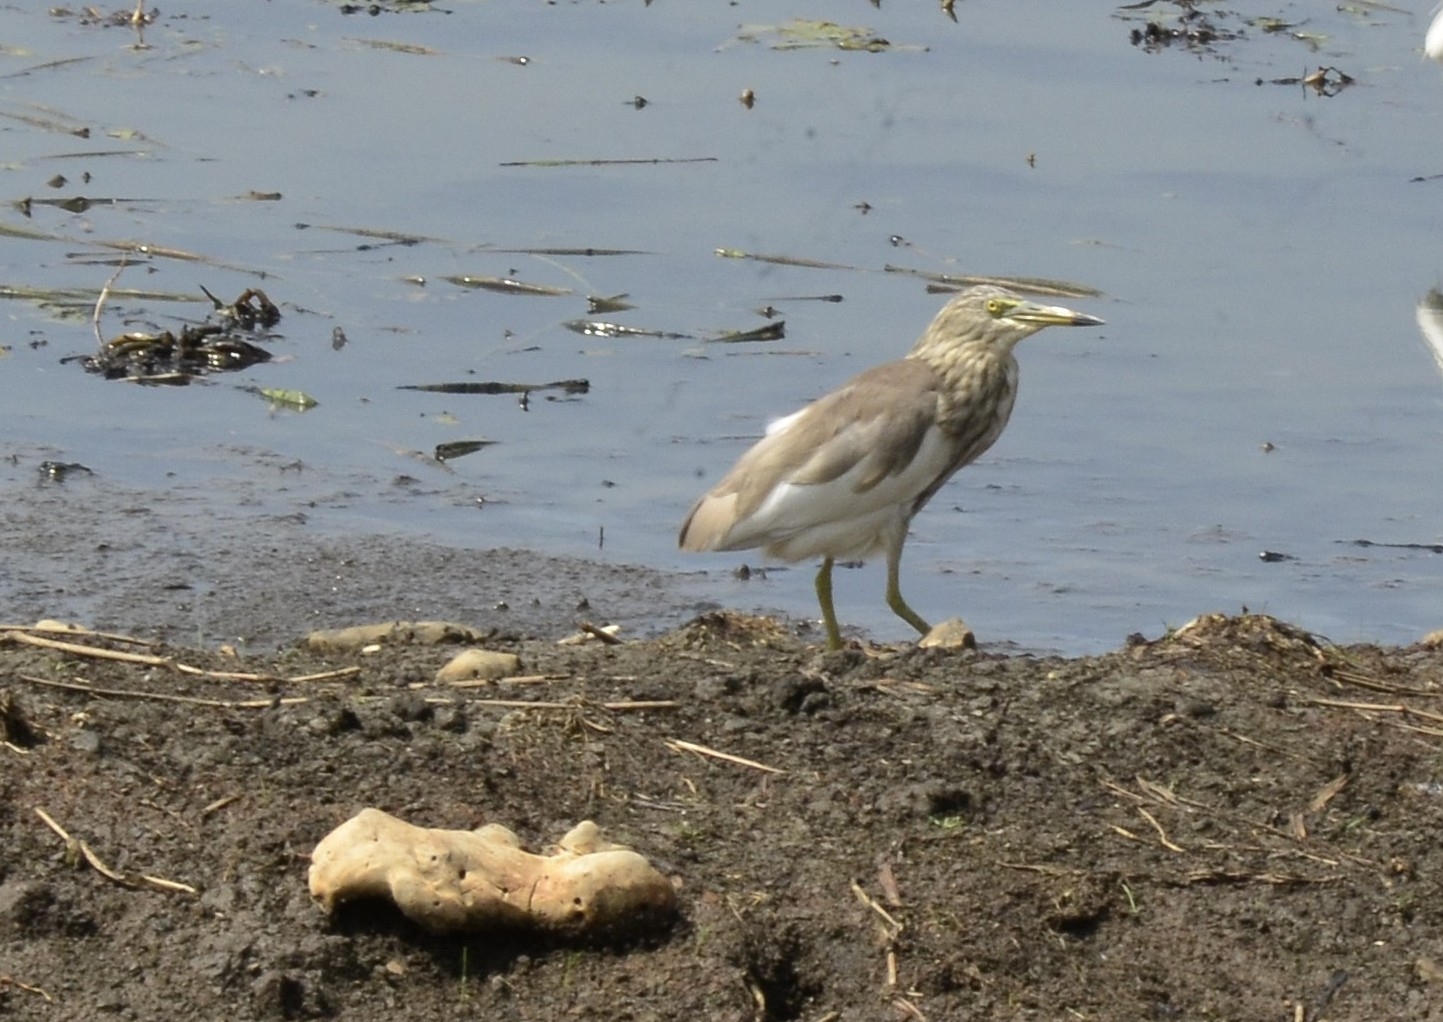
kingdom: Animalia
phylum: Chordata
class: Aves
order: Pelecaniformes
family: Ardeidae
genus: Ardeola
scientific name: Ardeola grayii
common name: Indian pond heron
